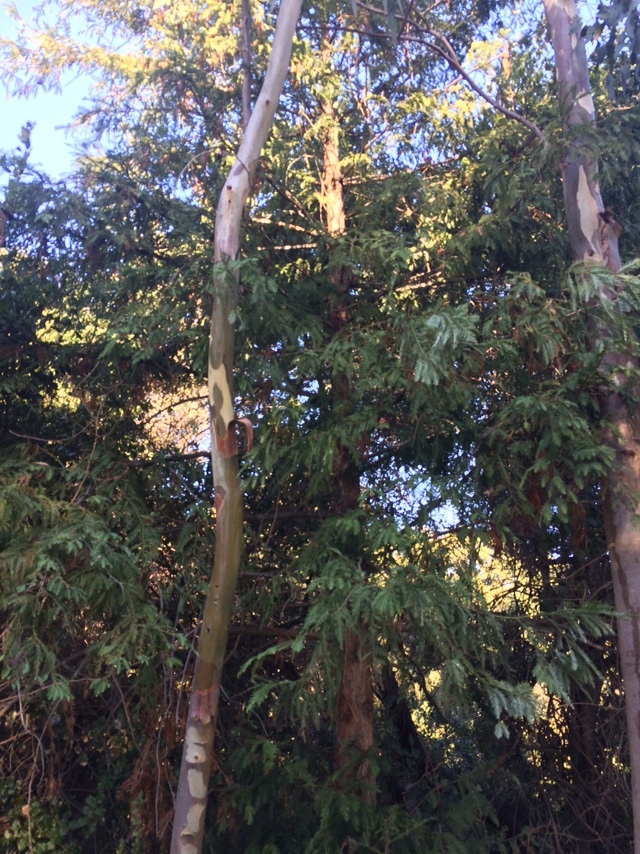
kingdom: Plantae
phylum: Tracheophyta
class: Pinopsida
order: Pinales
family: Cupressaceae
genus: Sequoia
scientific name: Sequoia sempervirens
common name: Coast redwood
